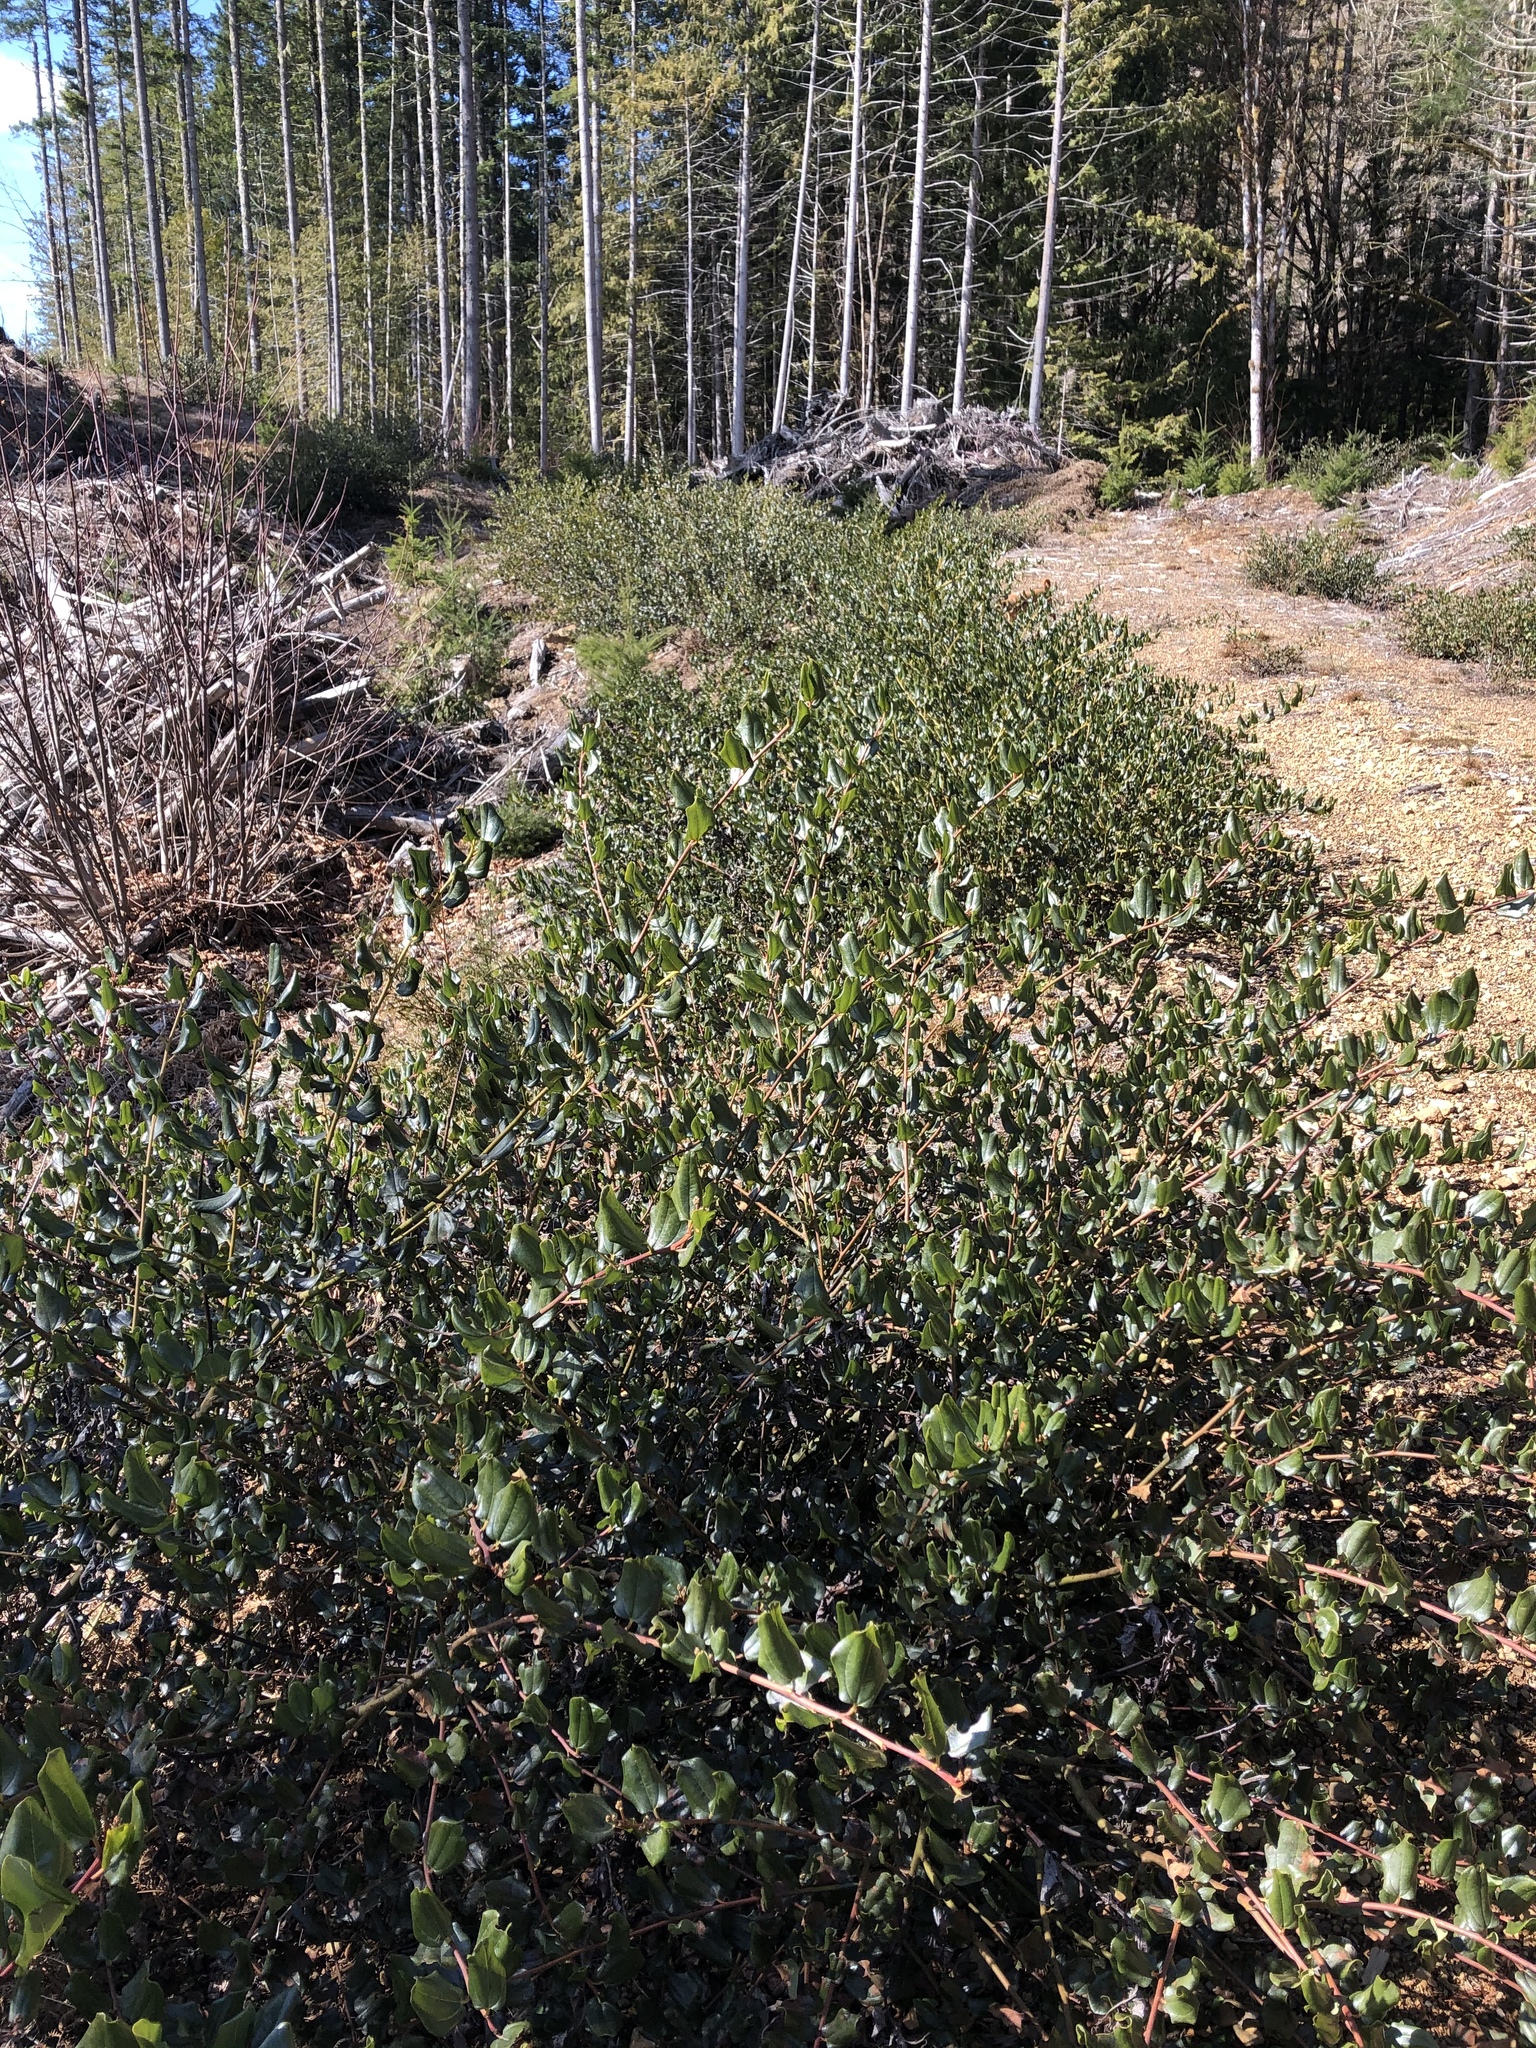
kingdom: Plantae
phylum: Tracheophyta
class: Magnoliopsida
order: Rosales
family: Rhamnaceae
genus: Ceanothus
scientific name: Ceanothus velutinus
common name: Snowbrush
